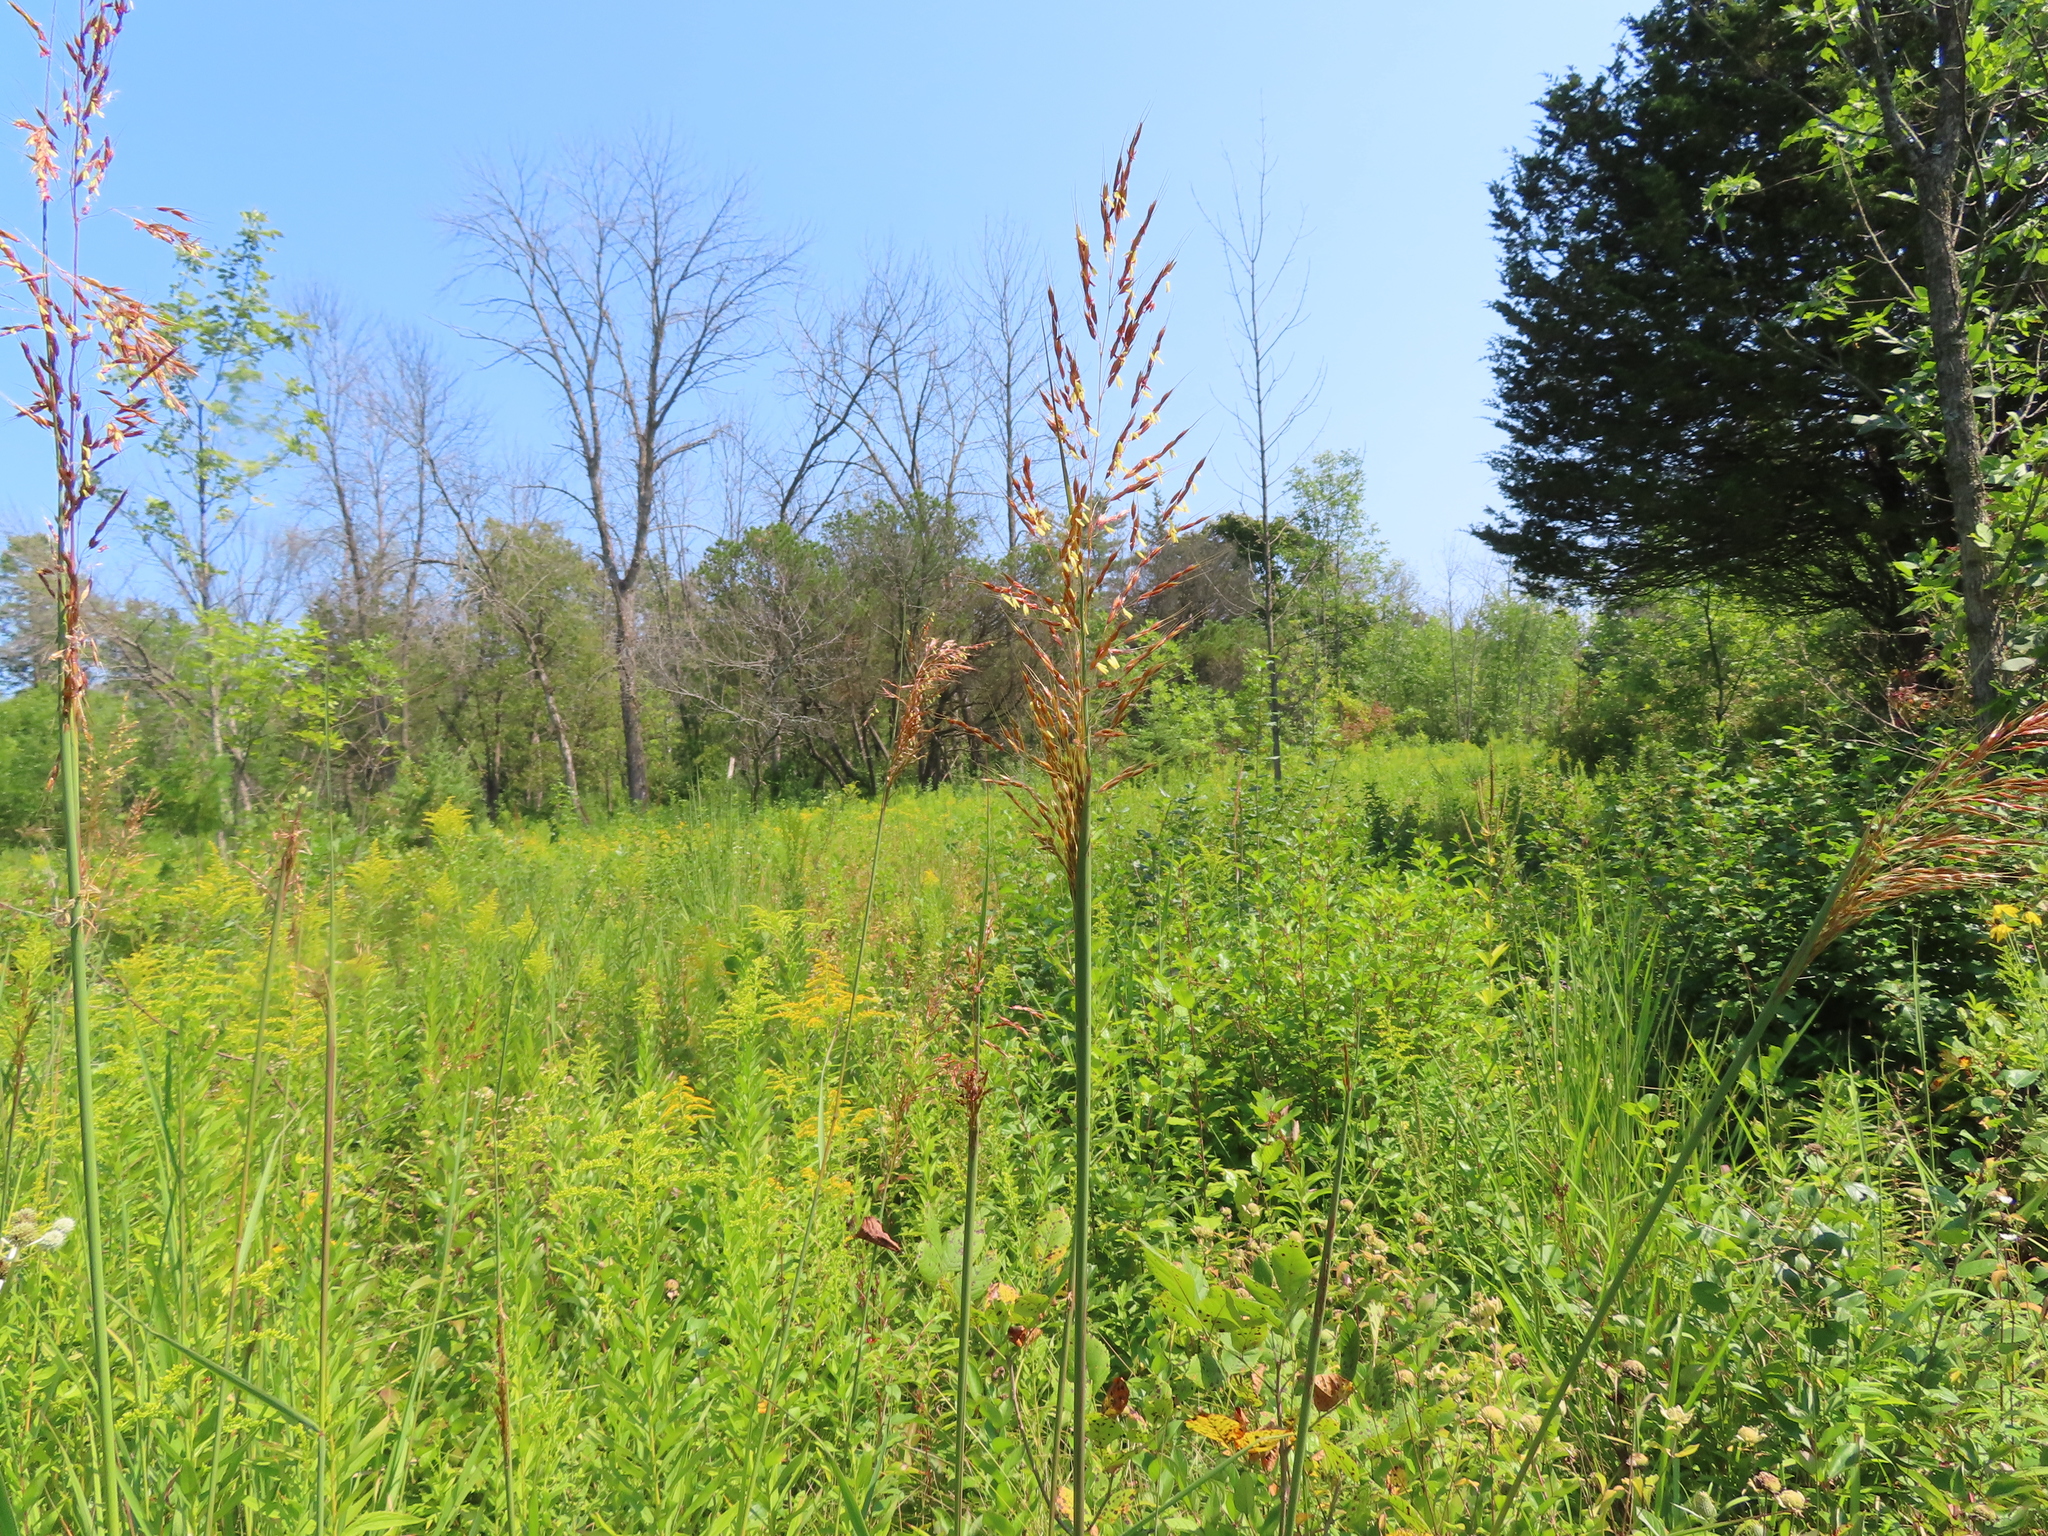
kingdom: Plantae
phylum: Tracheophyta
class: Liliopsida
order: Poales
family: Poaceae
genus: Sorghastrum
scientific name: Sorghastrum nutans
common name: Indian grass
